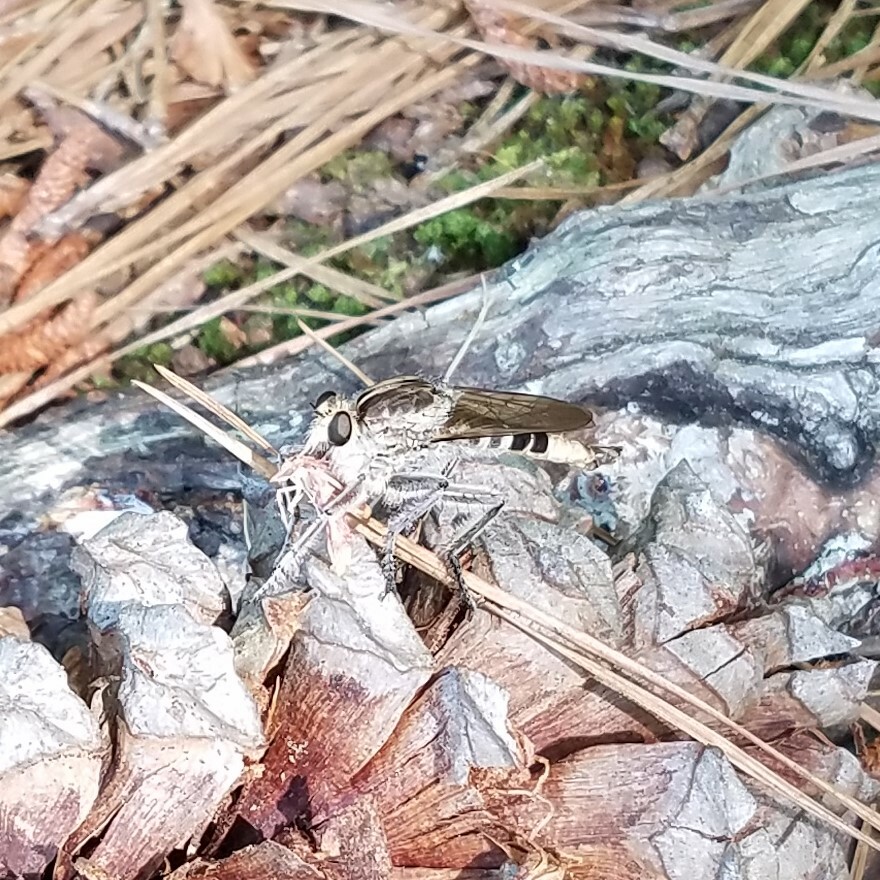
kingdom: Animalia
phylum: Arthropoda
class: Insecta
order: Diptera
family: Asilidae
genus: Triorla
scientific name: Triorla interrupta
